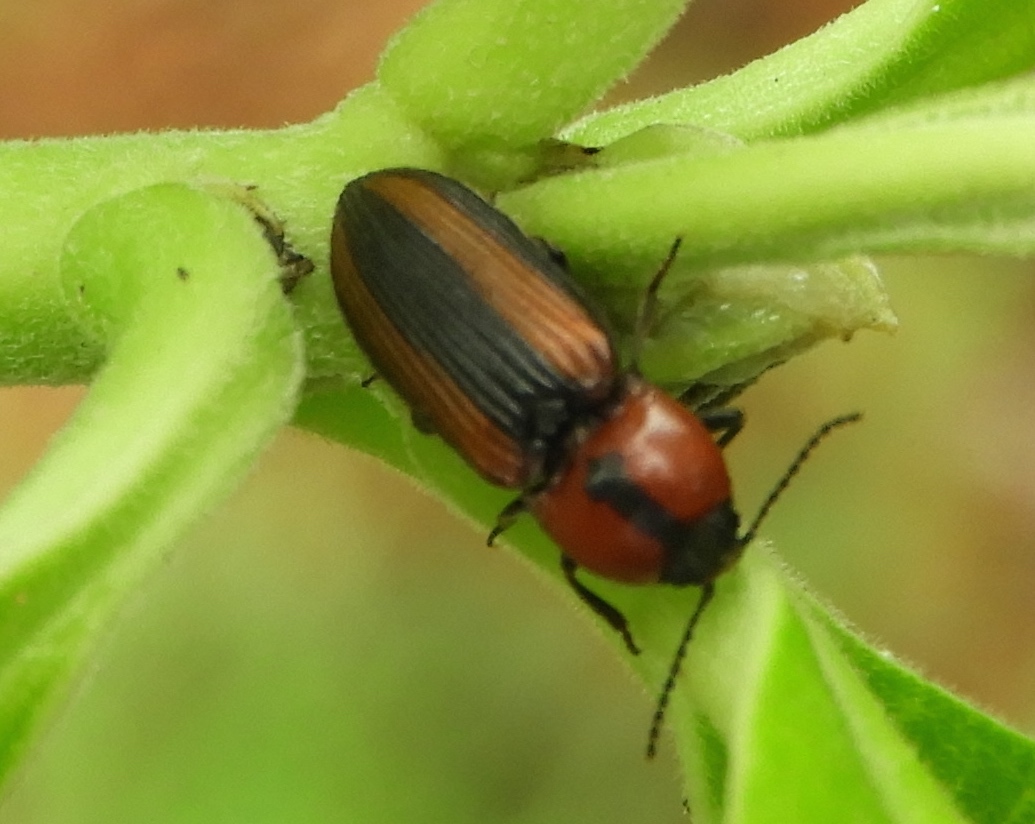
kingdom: Animalia
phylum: Arthropoda
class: Insecta
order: Coleoptera
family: Elateridae
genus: Cardiophorus
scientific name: Cardiophorus aptopoides
